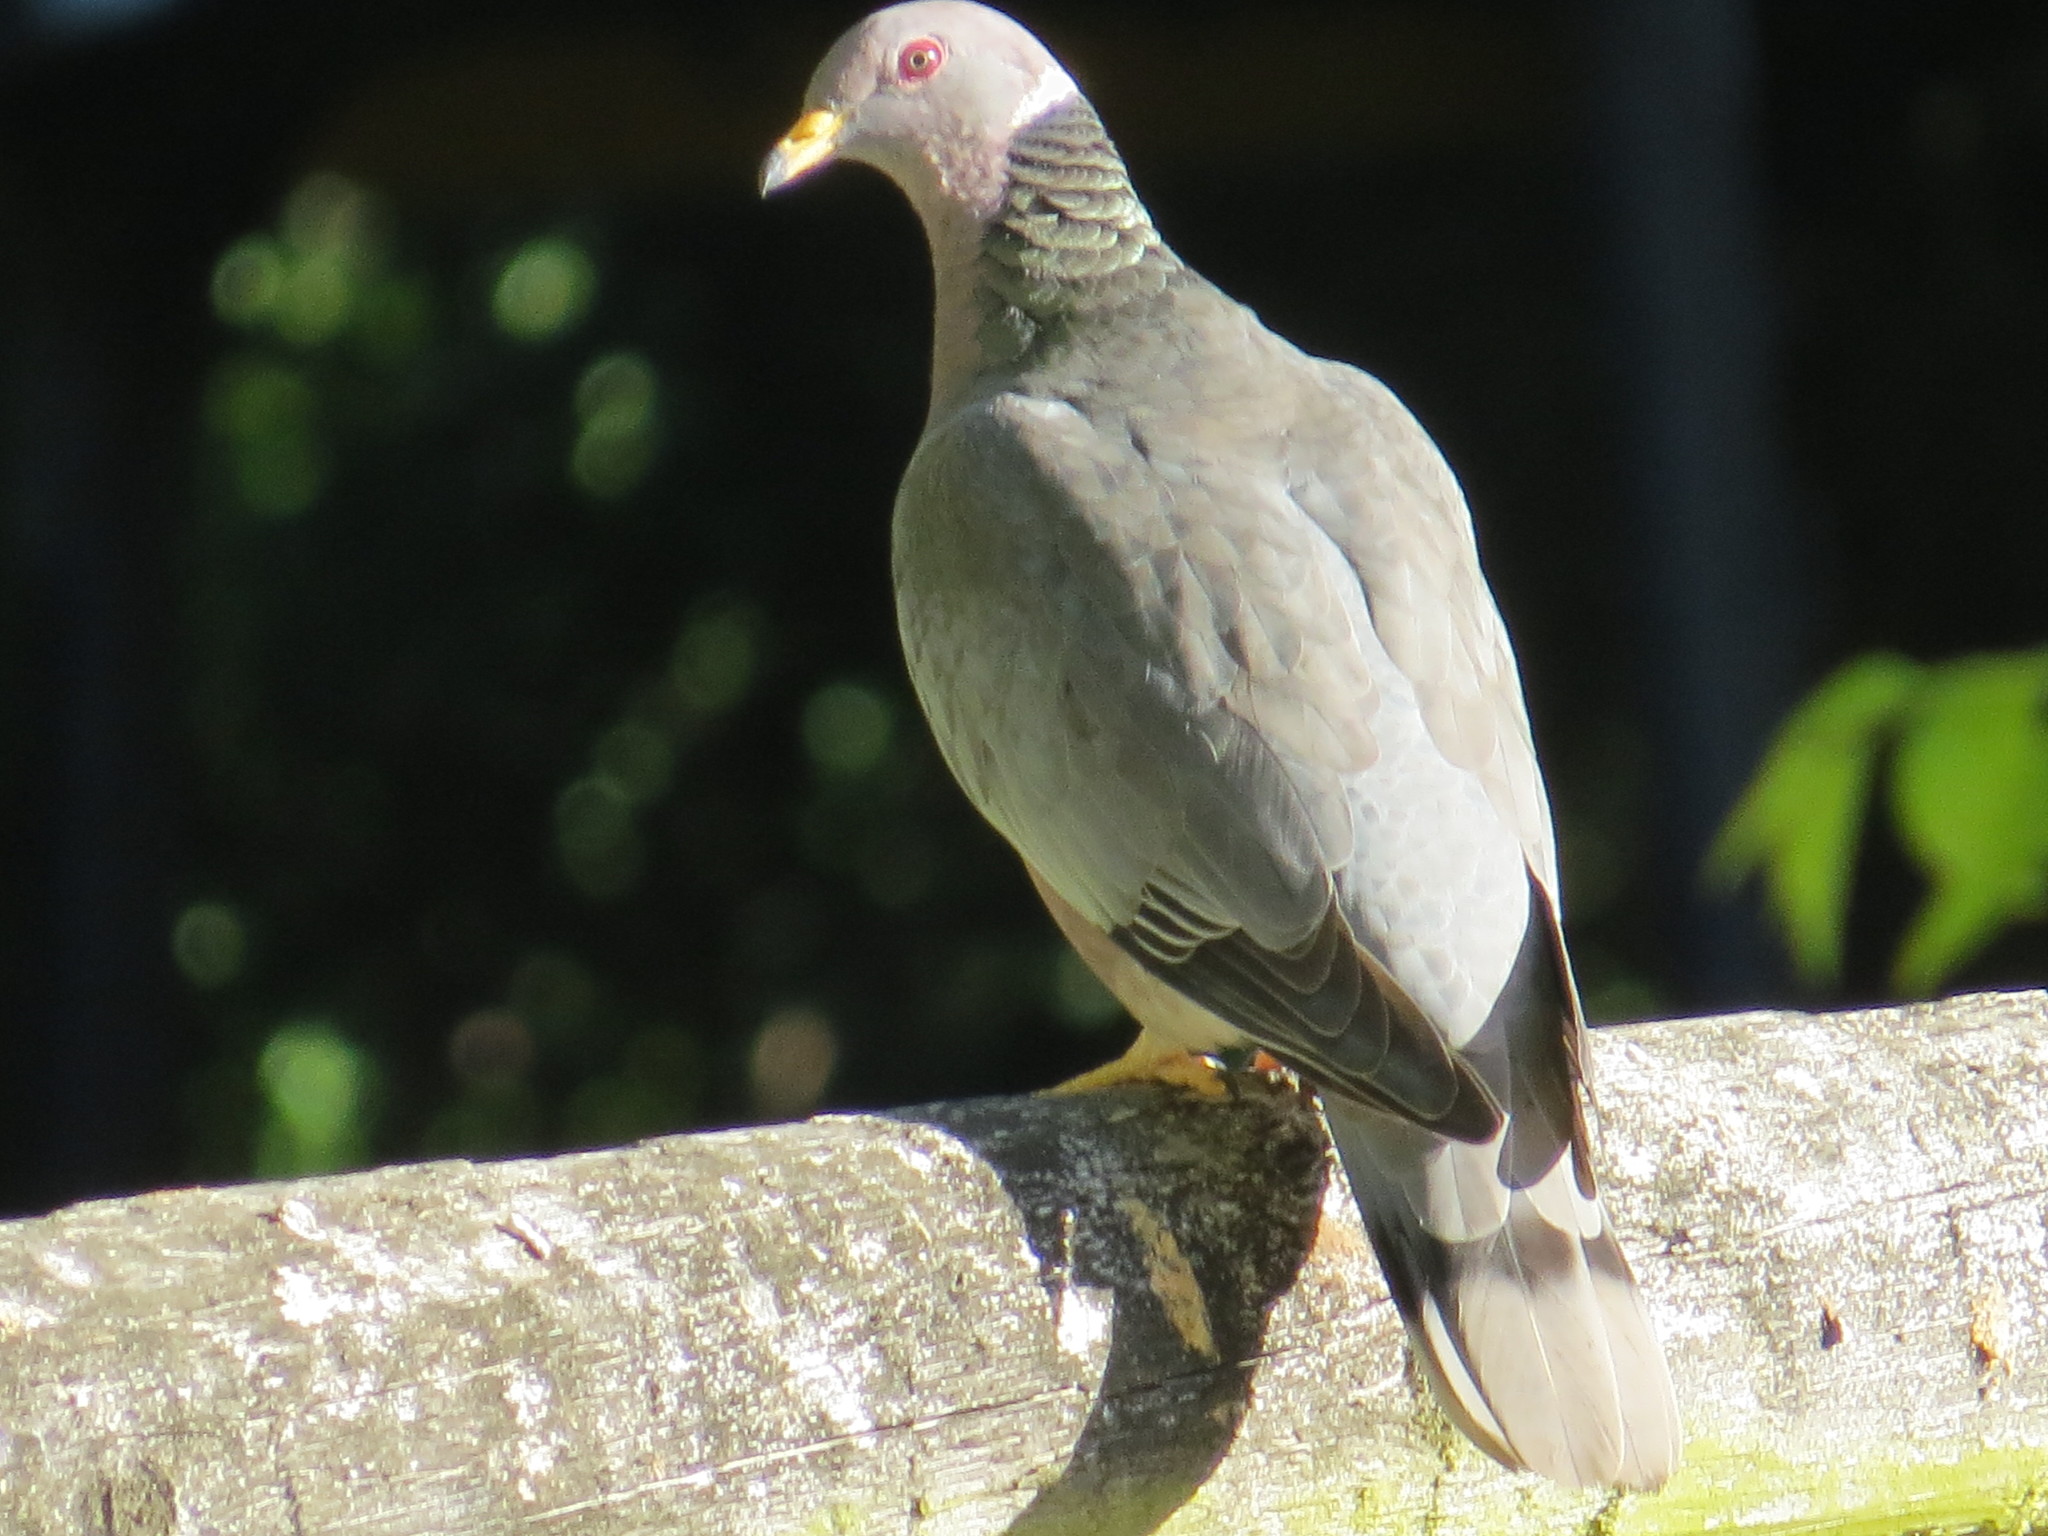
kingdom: Animalia
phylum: Chordata
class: Aves
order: Columbiformes
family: Columbidae
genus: Patagioenas
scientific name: Patagioenas fasciata
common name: Band-tailed pigeon
